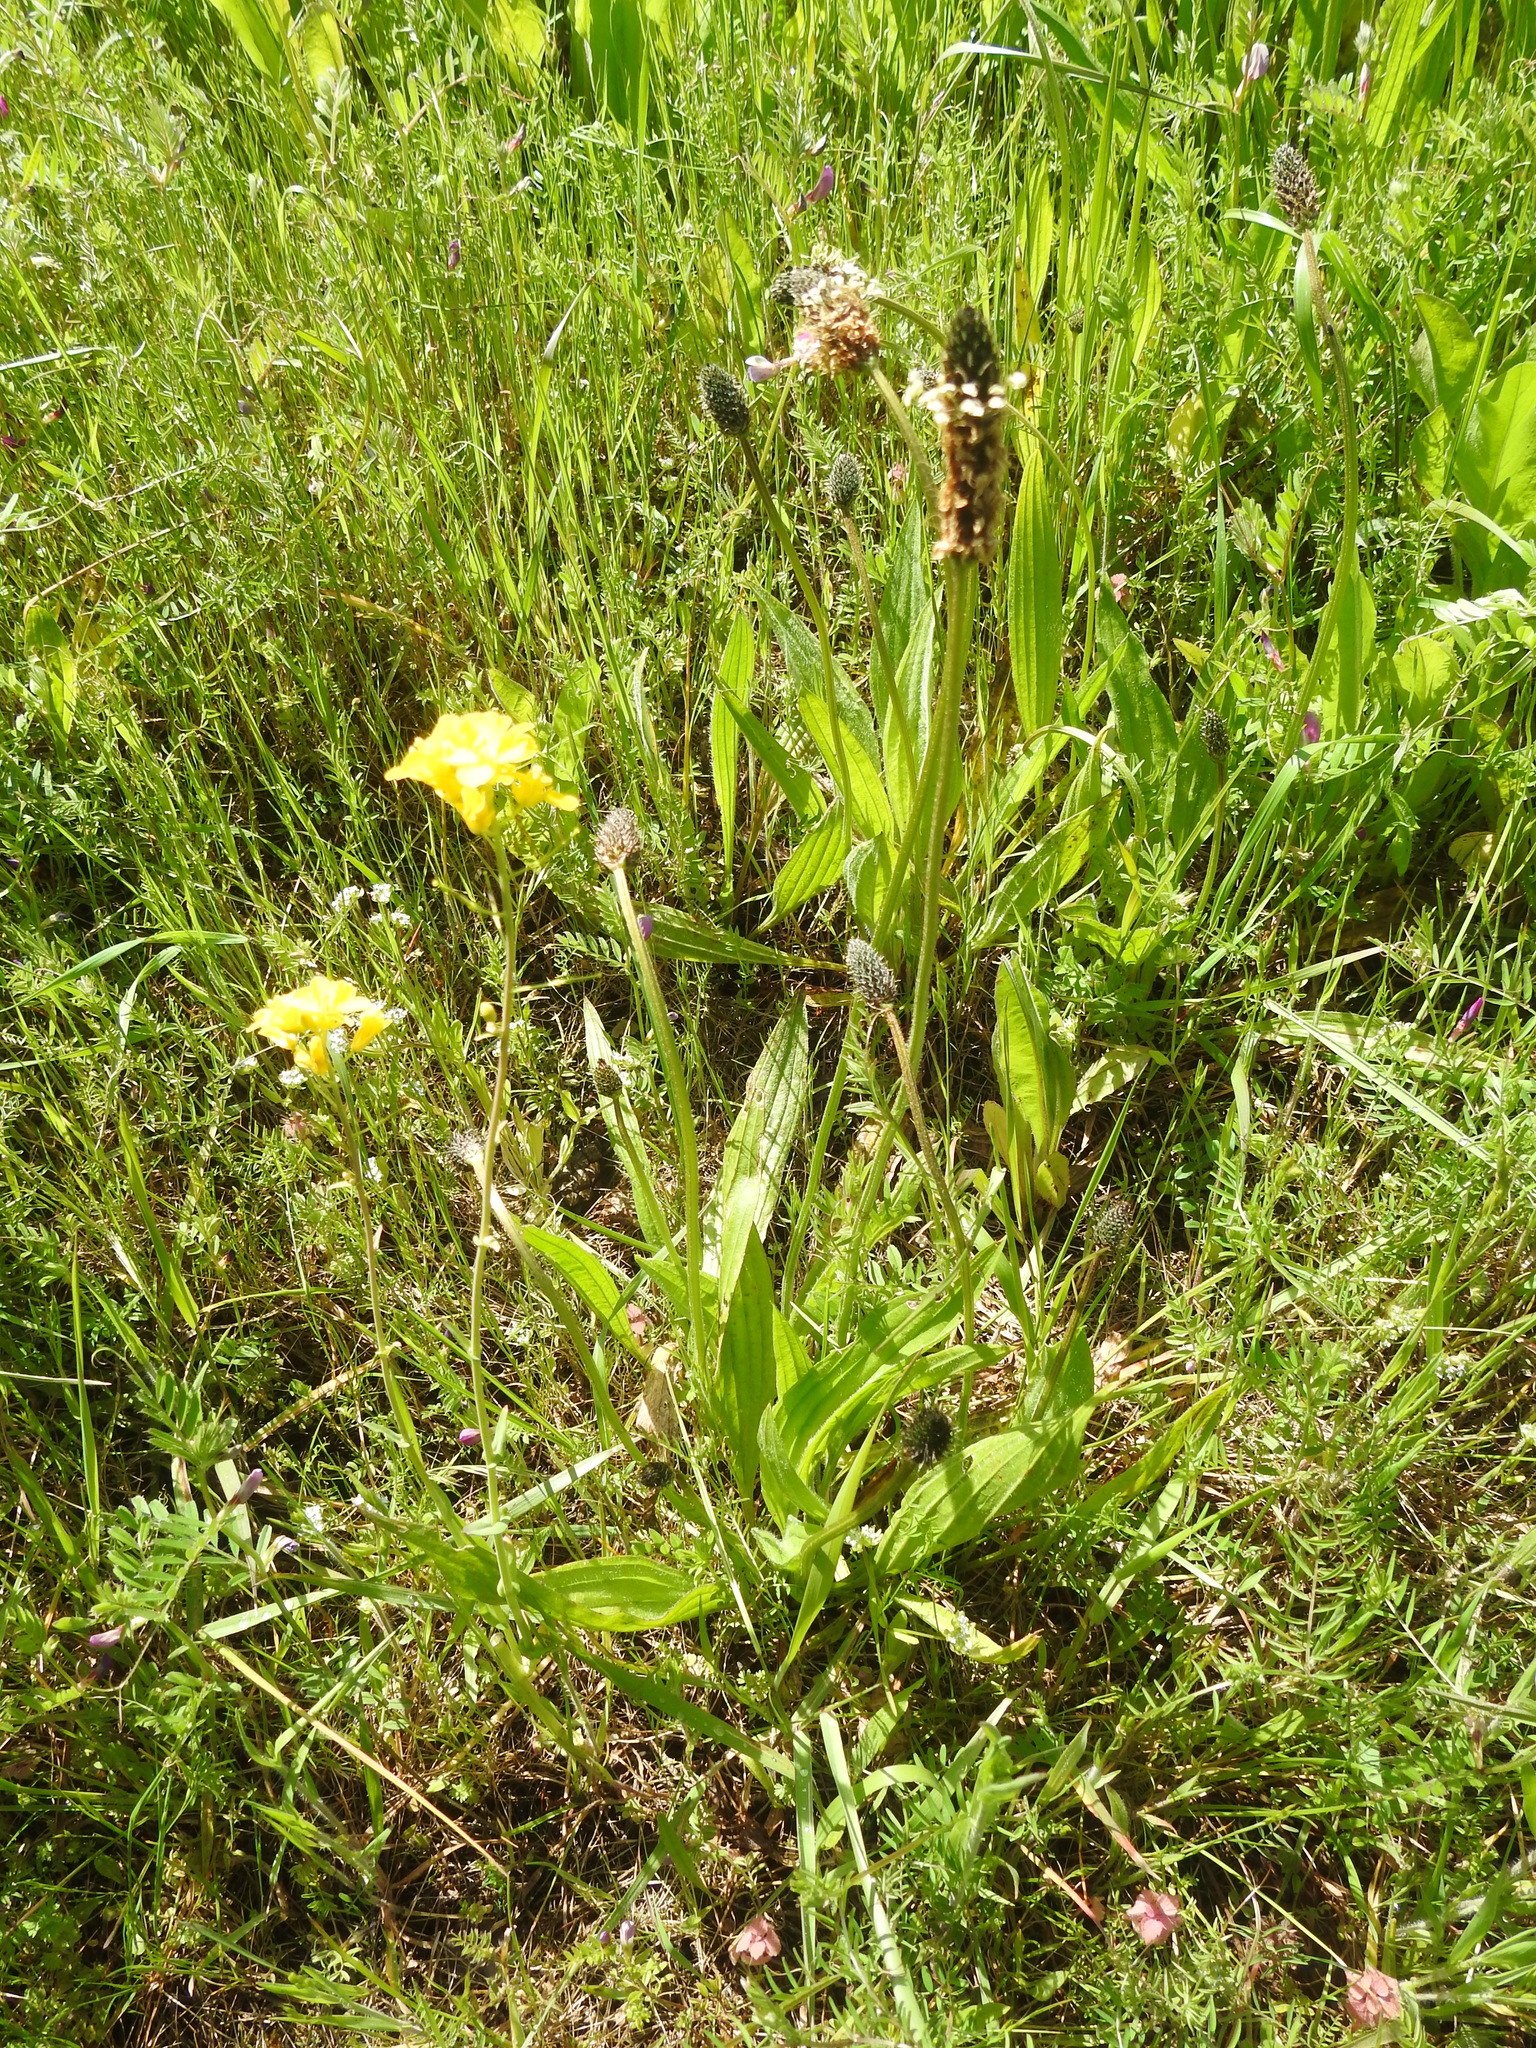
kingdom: Plantae
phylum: Tracheophyta
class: Magnoliopsida
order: Lamiales
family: Plantaginaceae
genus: Plantago
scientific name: Plantago lanceolata
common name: Ribwort plantain
